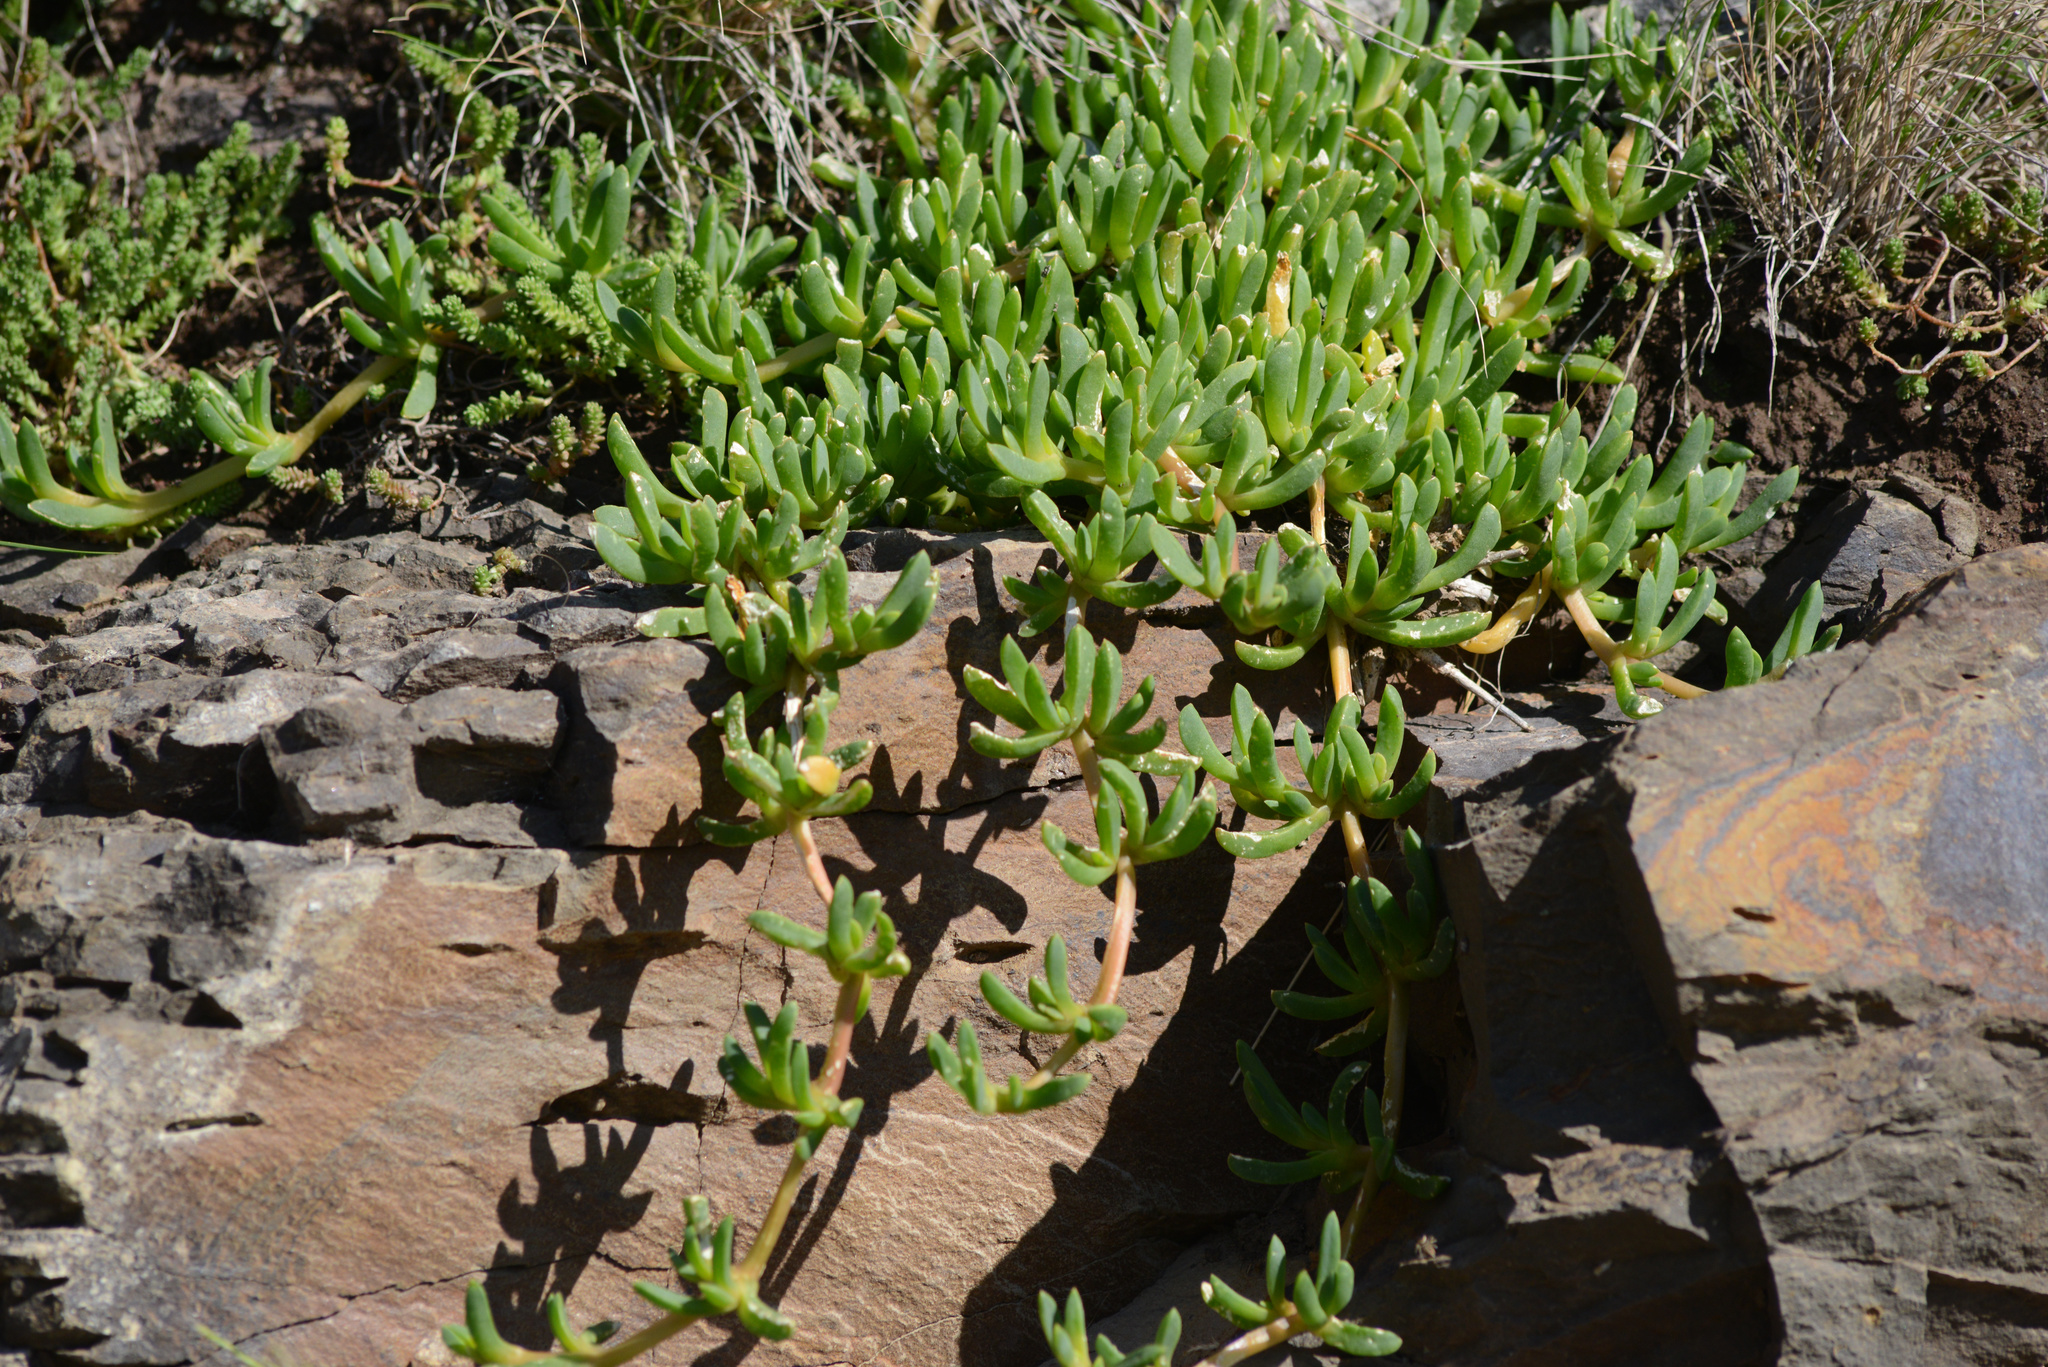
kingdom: Plantae
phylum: Tracheophyta
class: Magnoliopsida
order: Caryophyllales
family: Aizoaceae
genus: Disphyma
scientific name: Disphyma australe
